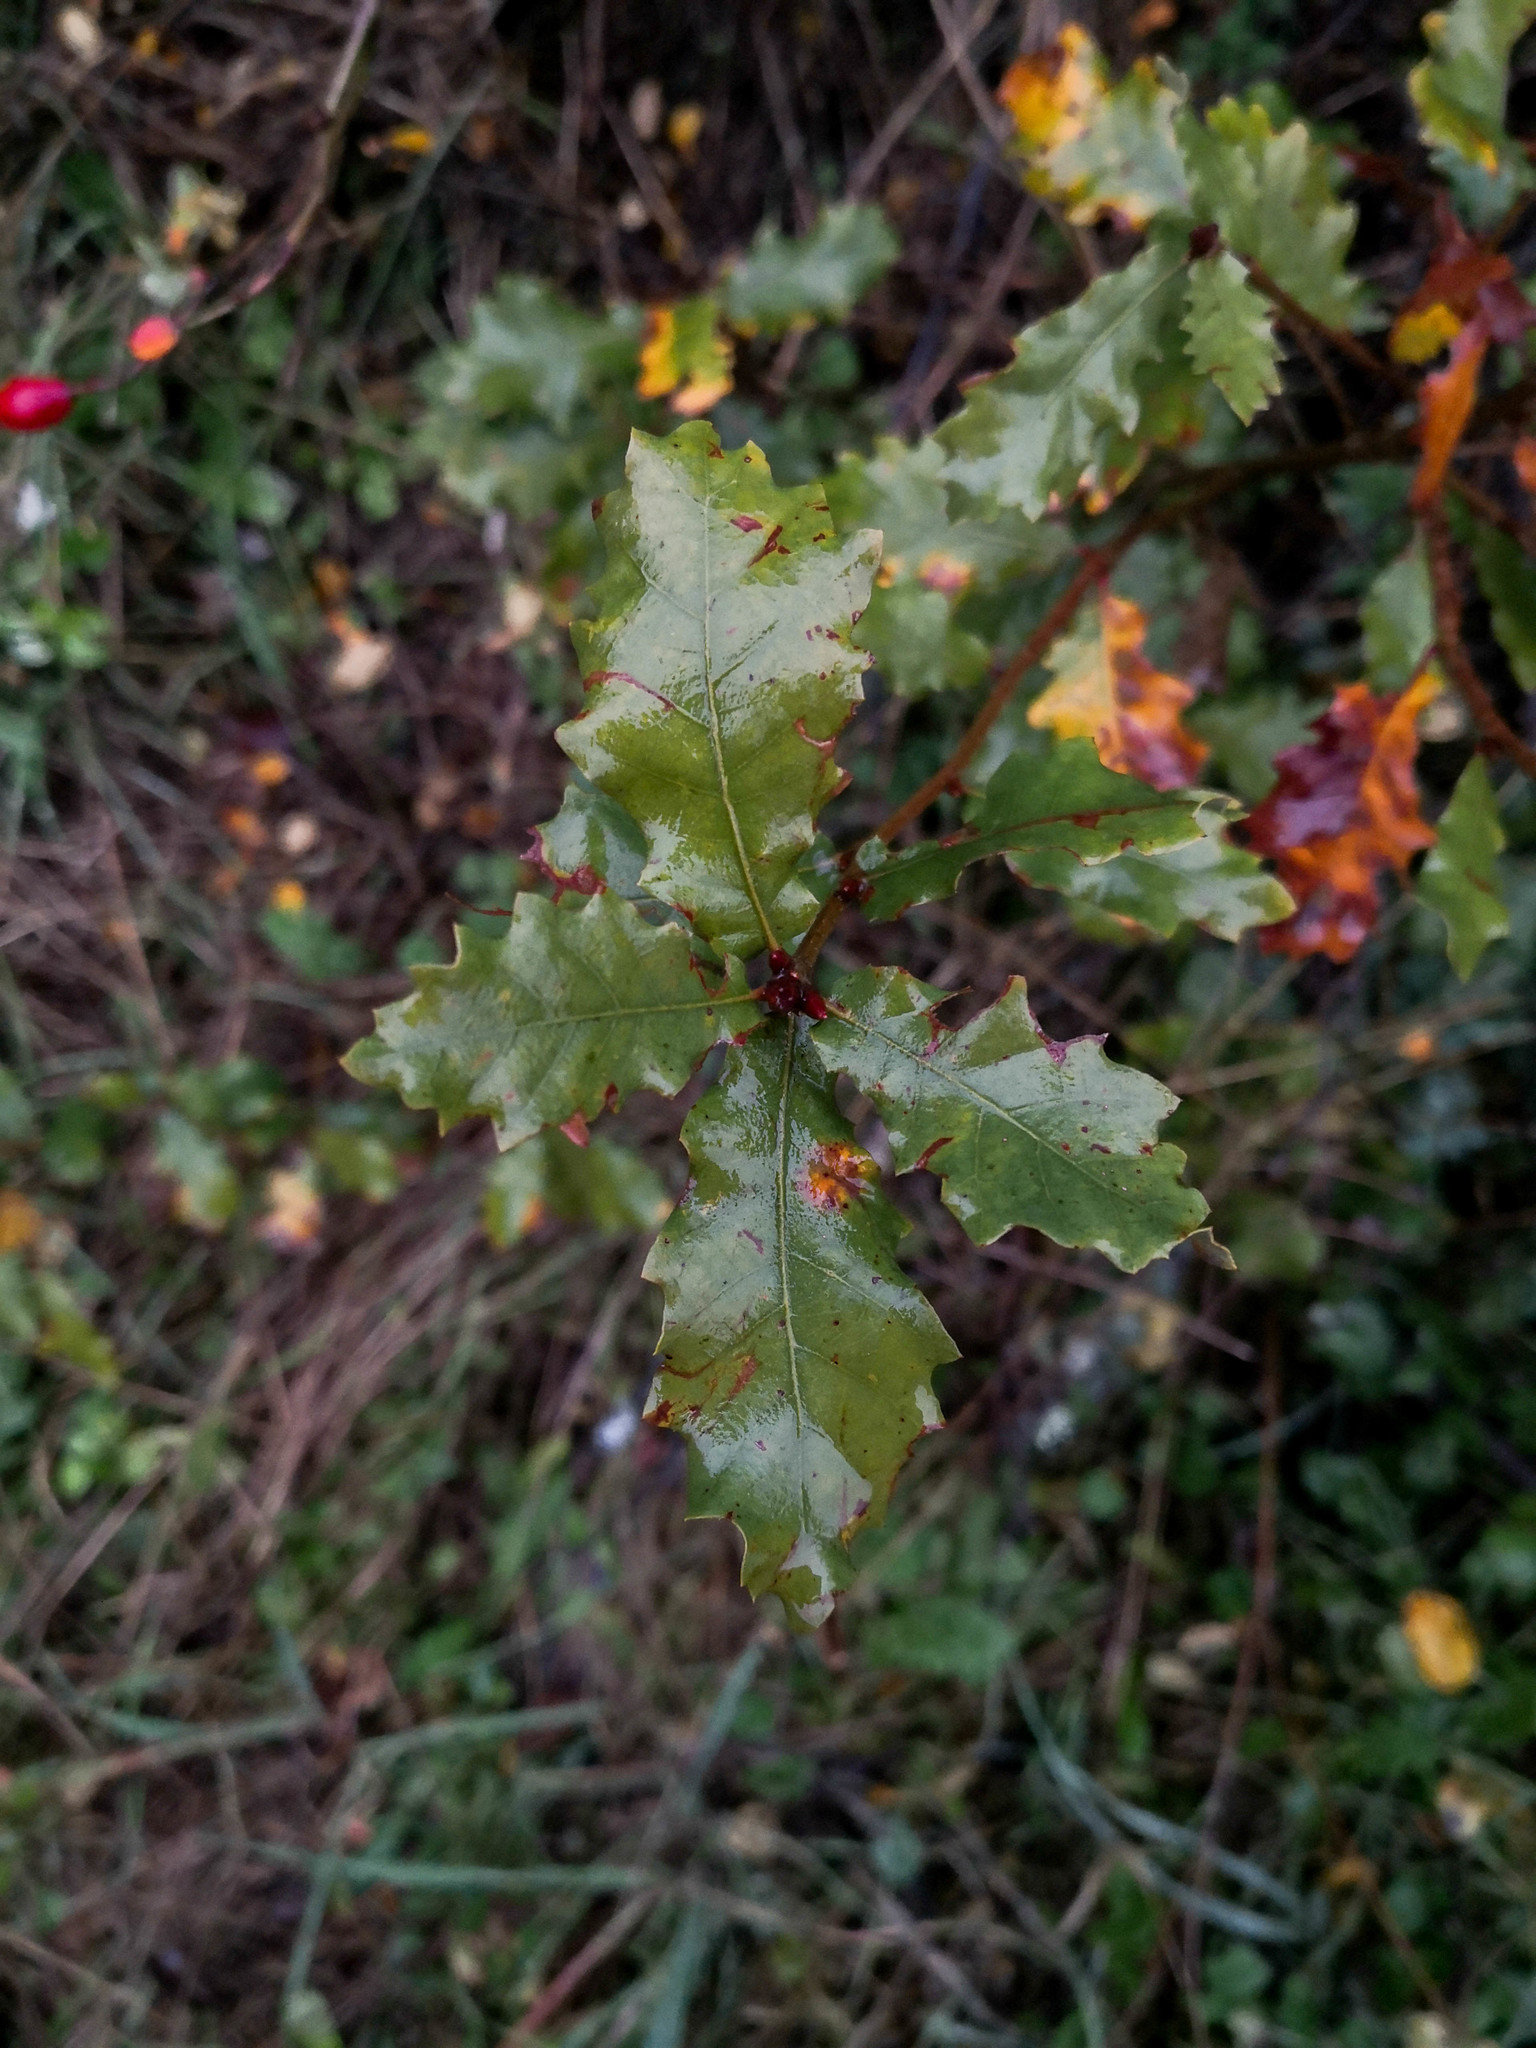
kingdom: Plantae
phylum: Tracheophyta
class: Magnoliopsida
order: Fagales
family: Fagaceae
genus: Quercus
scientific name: Quercus faginea
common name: Gall oak tree
